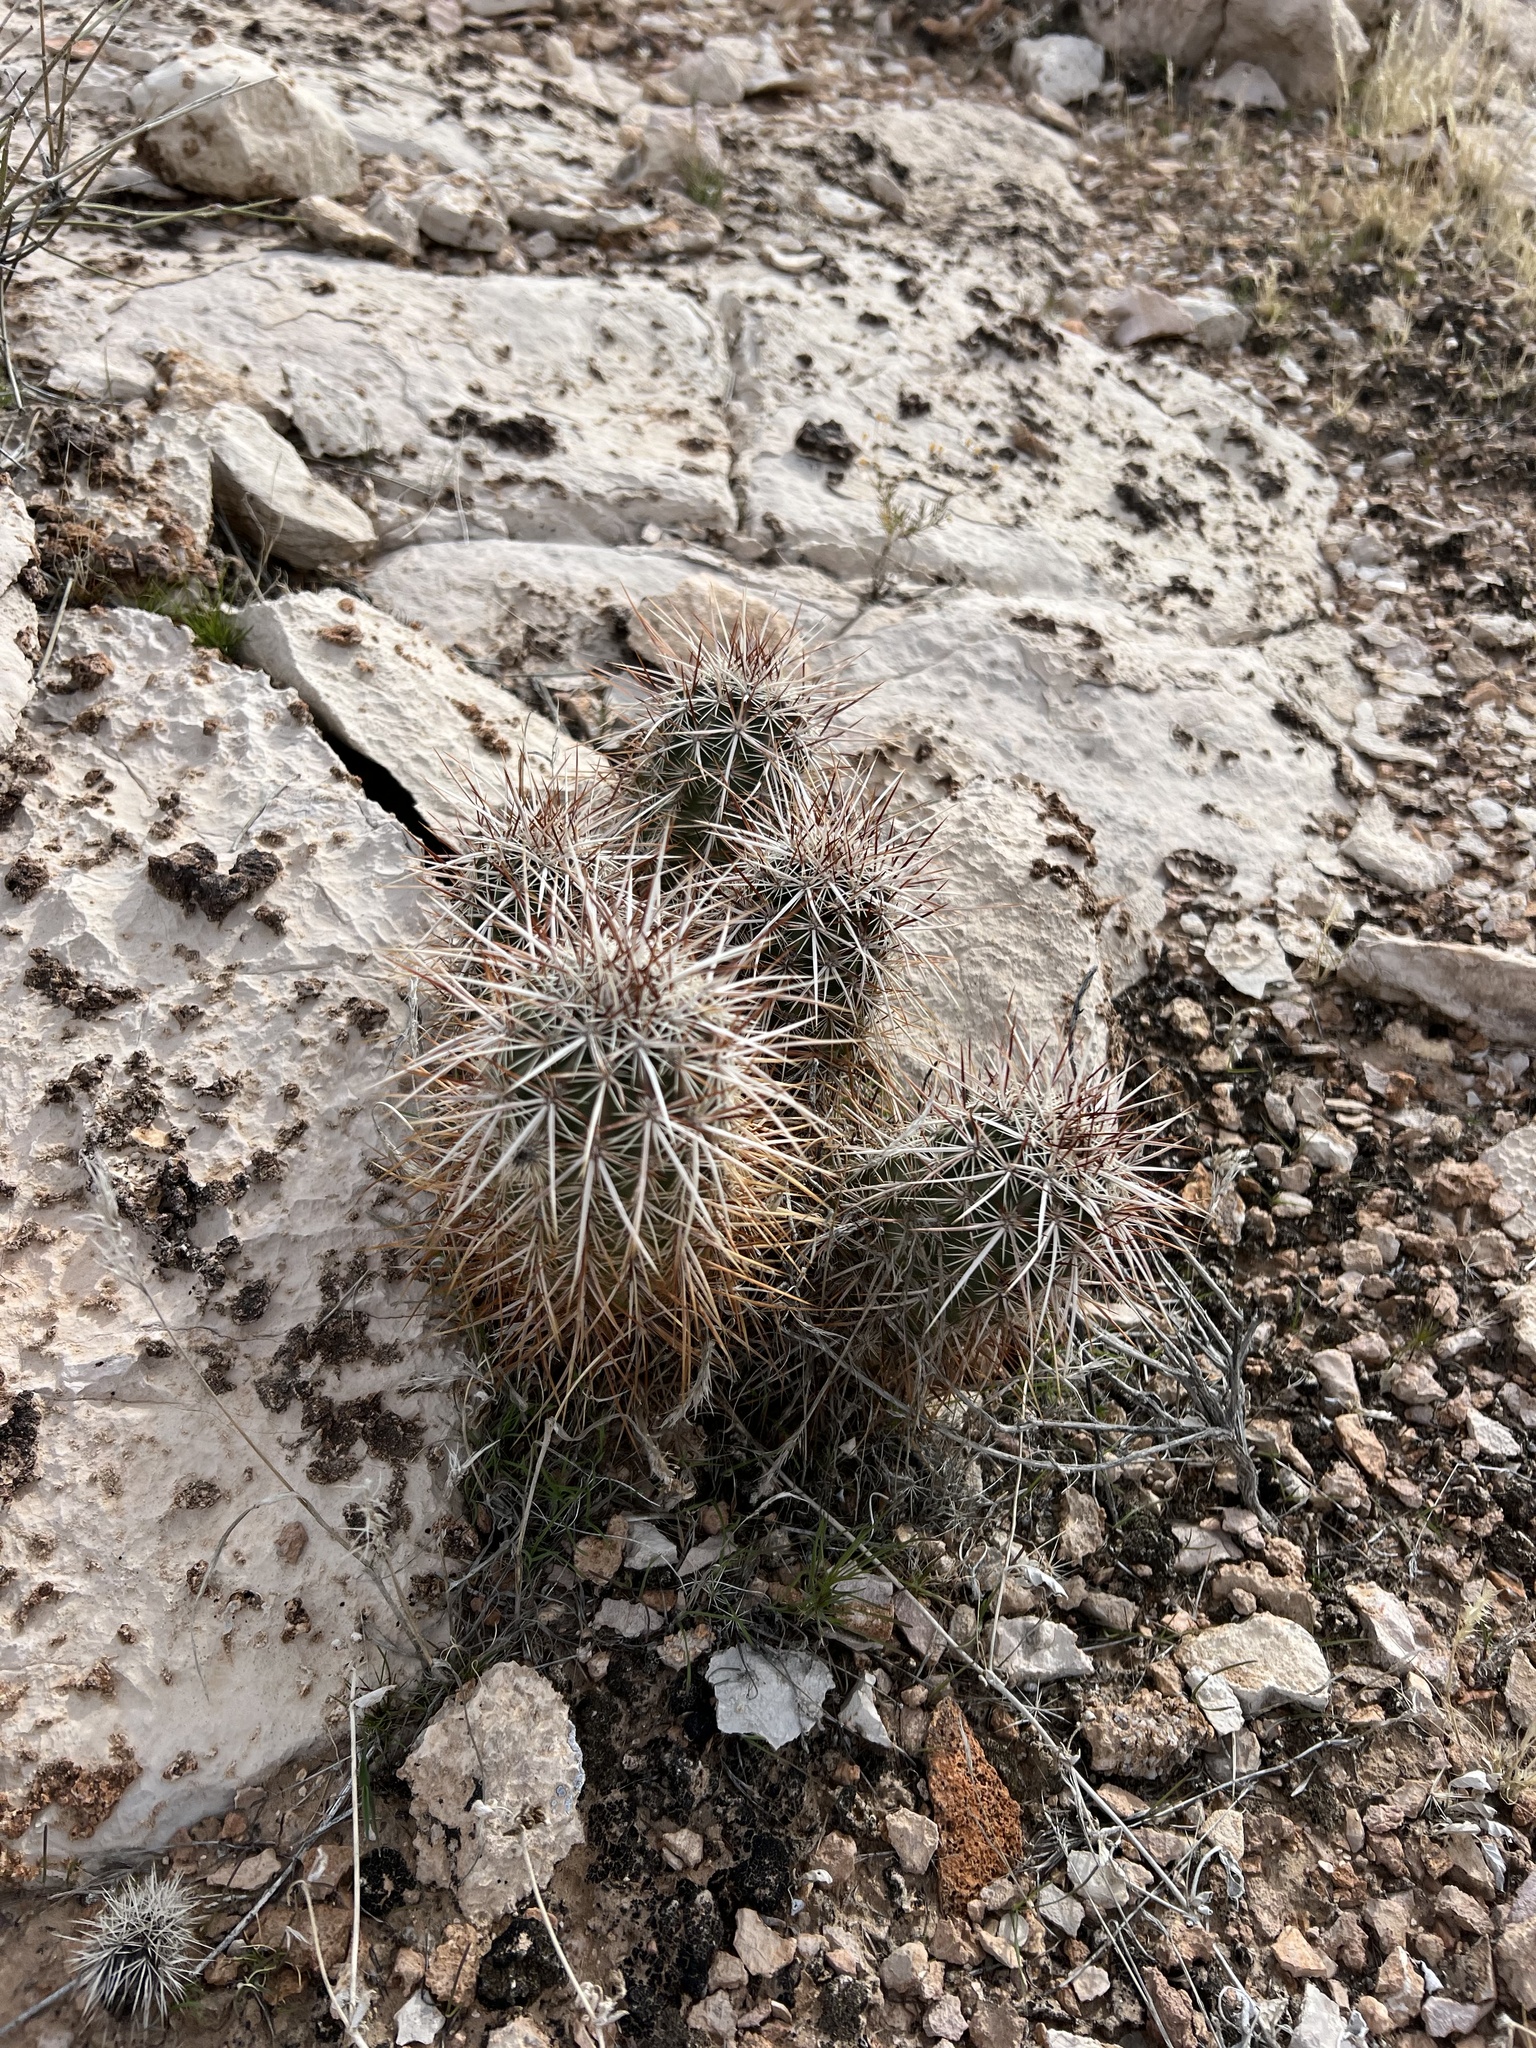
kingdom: Plantae
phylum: Tracheophyta
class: Magnoliopsida
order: Caryophyllales
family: Cactaceae
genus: Echinocereus
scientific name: Echinocereus engelmannii
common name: Engelmann's hedgehog cactus
